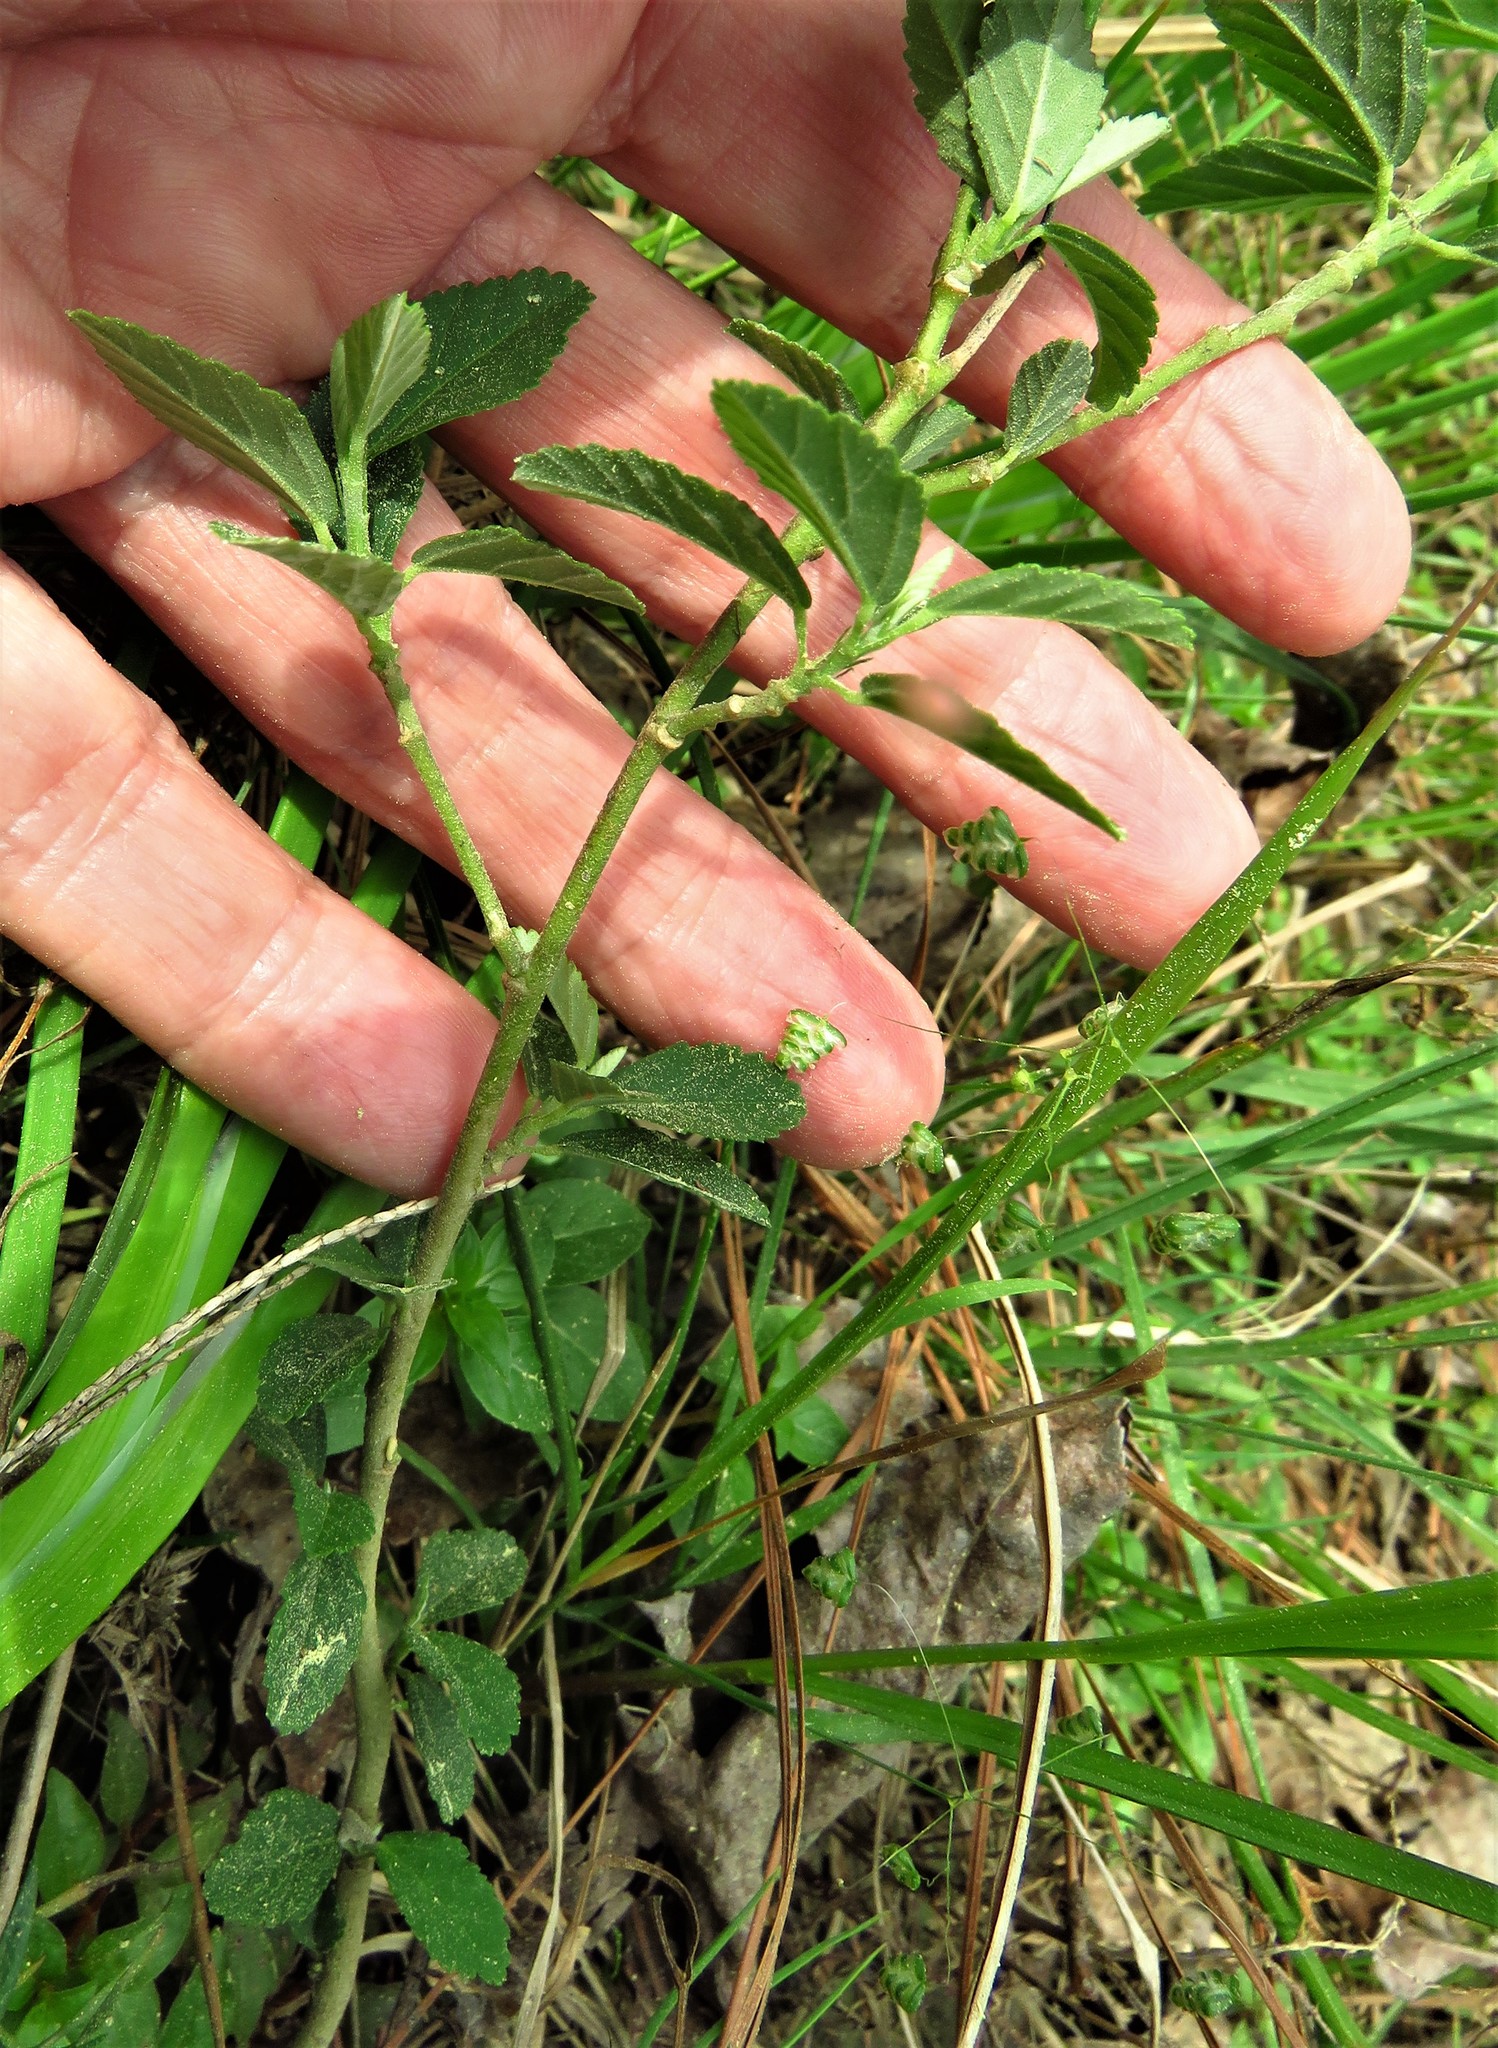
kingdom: Plantae
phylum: Tracheophyta
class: Magnoliopsida
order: Malvales
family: Malvaceae
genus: Sida
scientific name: Sida rhombifolia
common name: Queensland-hemp
